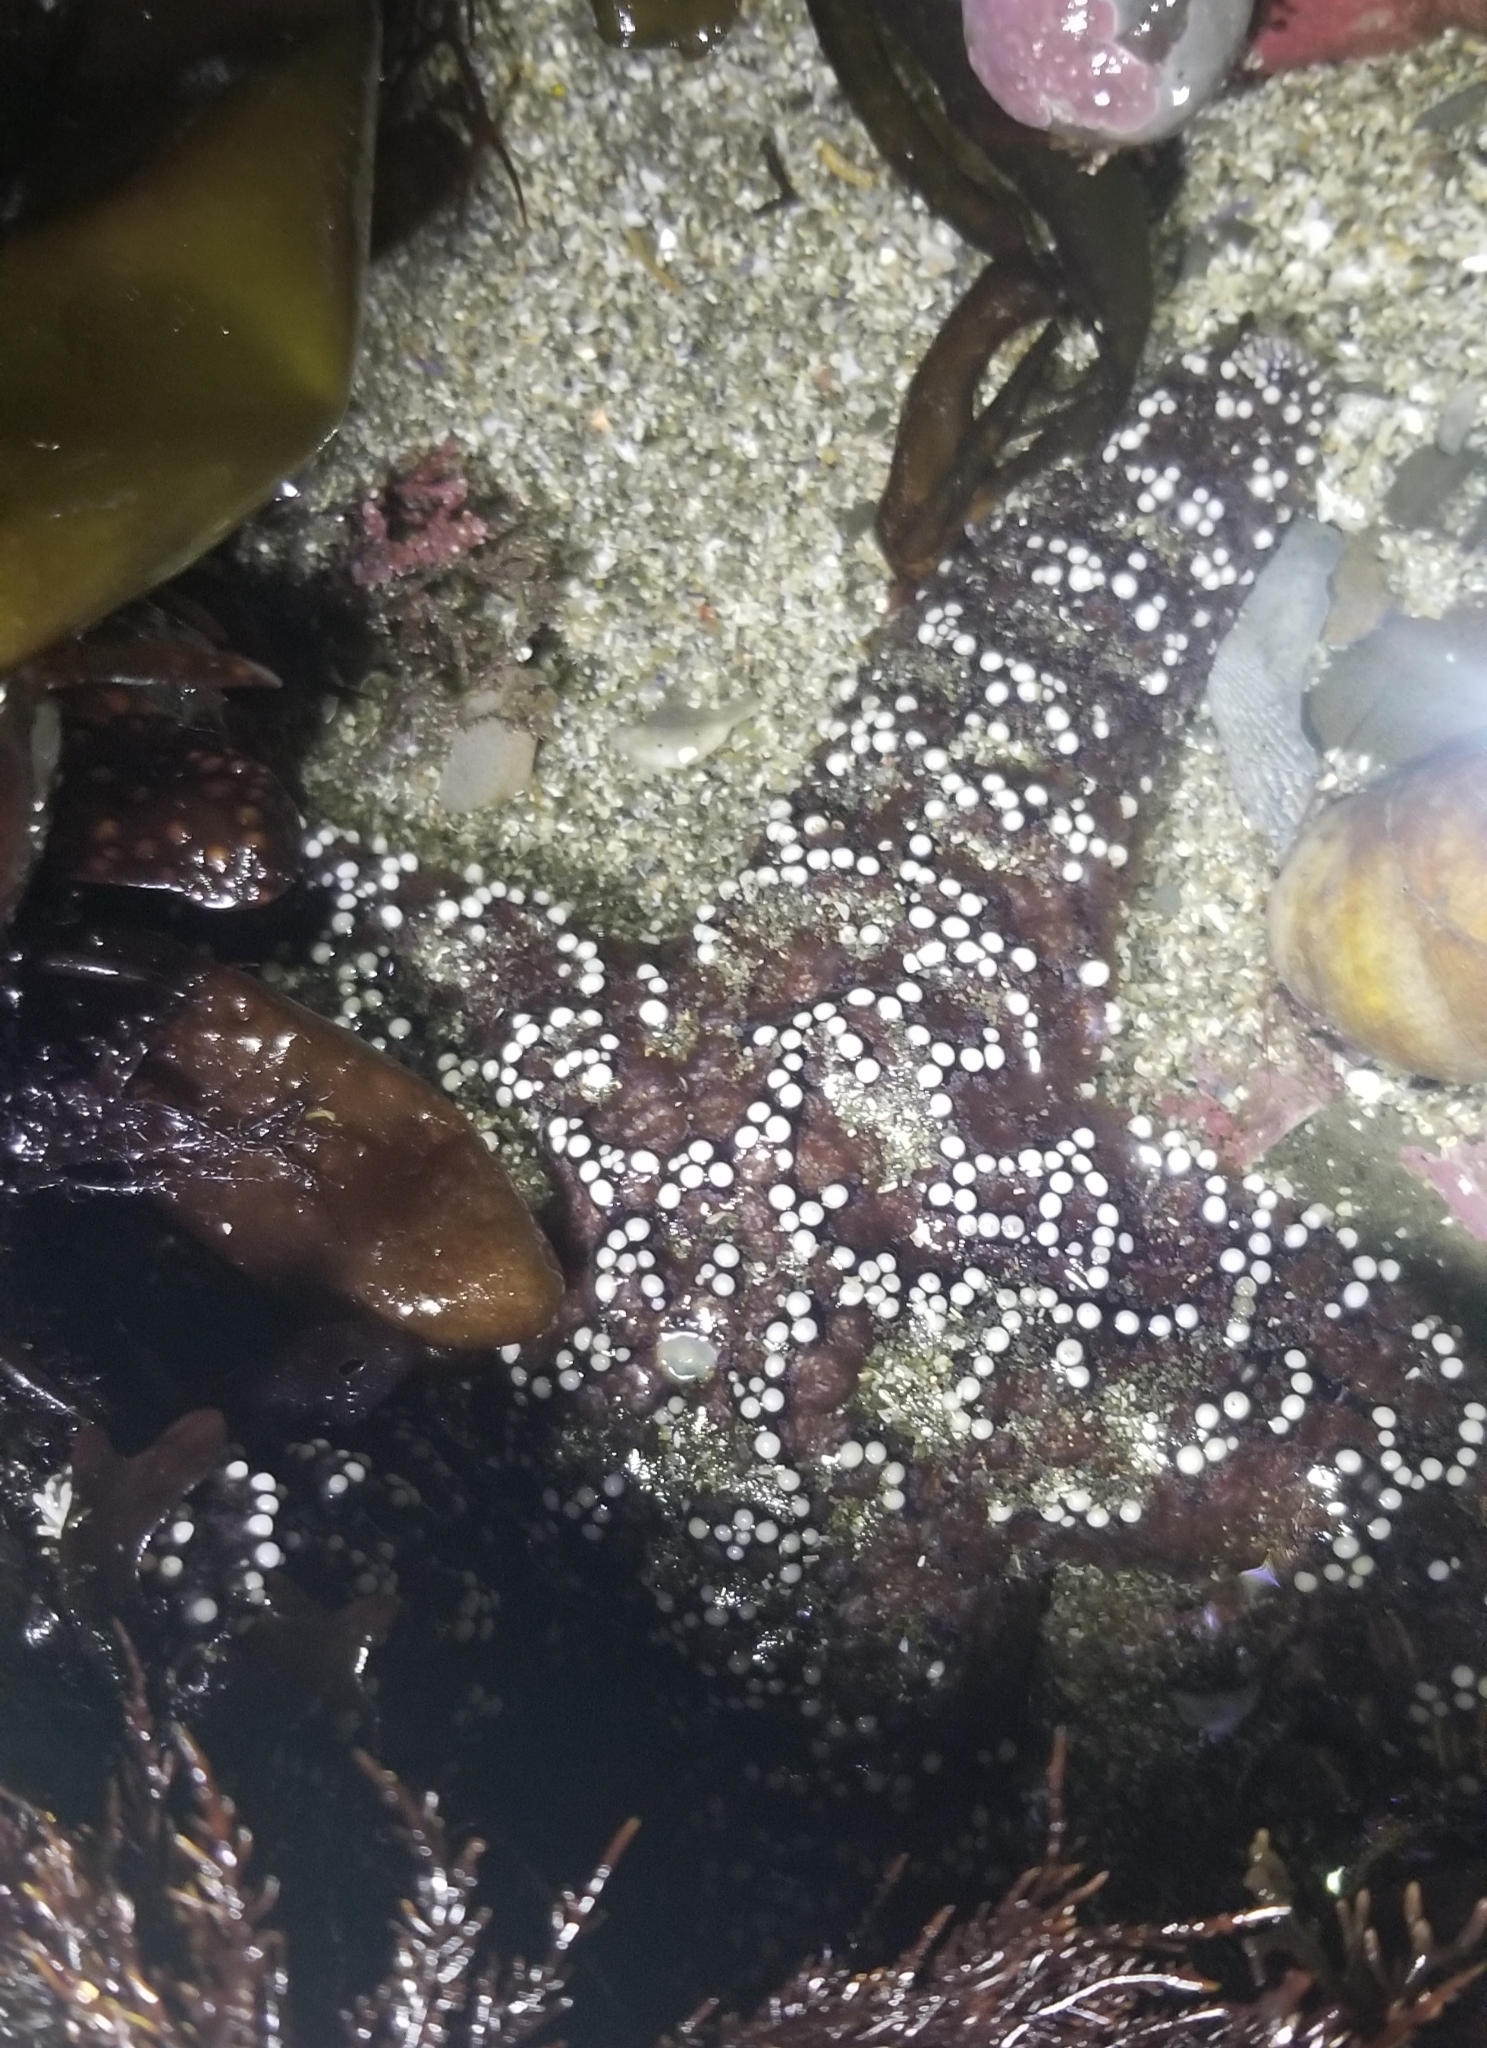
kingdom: Animalia
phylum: Echinodermata
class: Asteroidea
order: Forcipulatida
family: Asteriidae
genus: Pisaster
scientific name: Pisaster ochraceus
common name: Ochre stars
